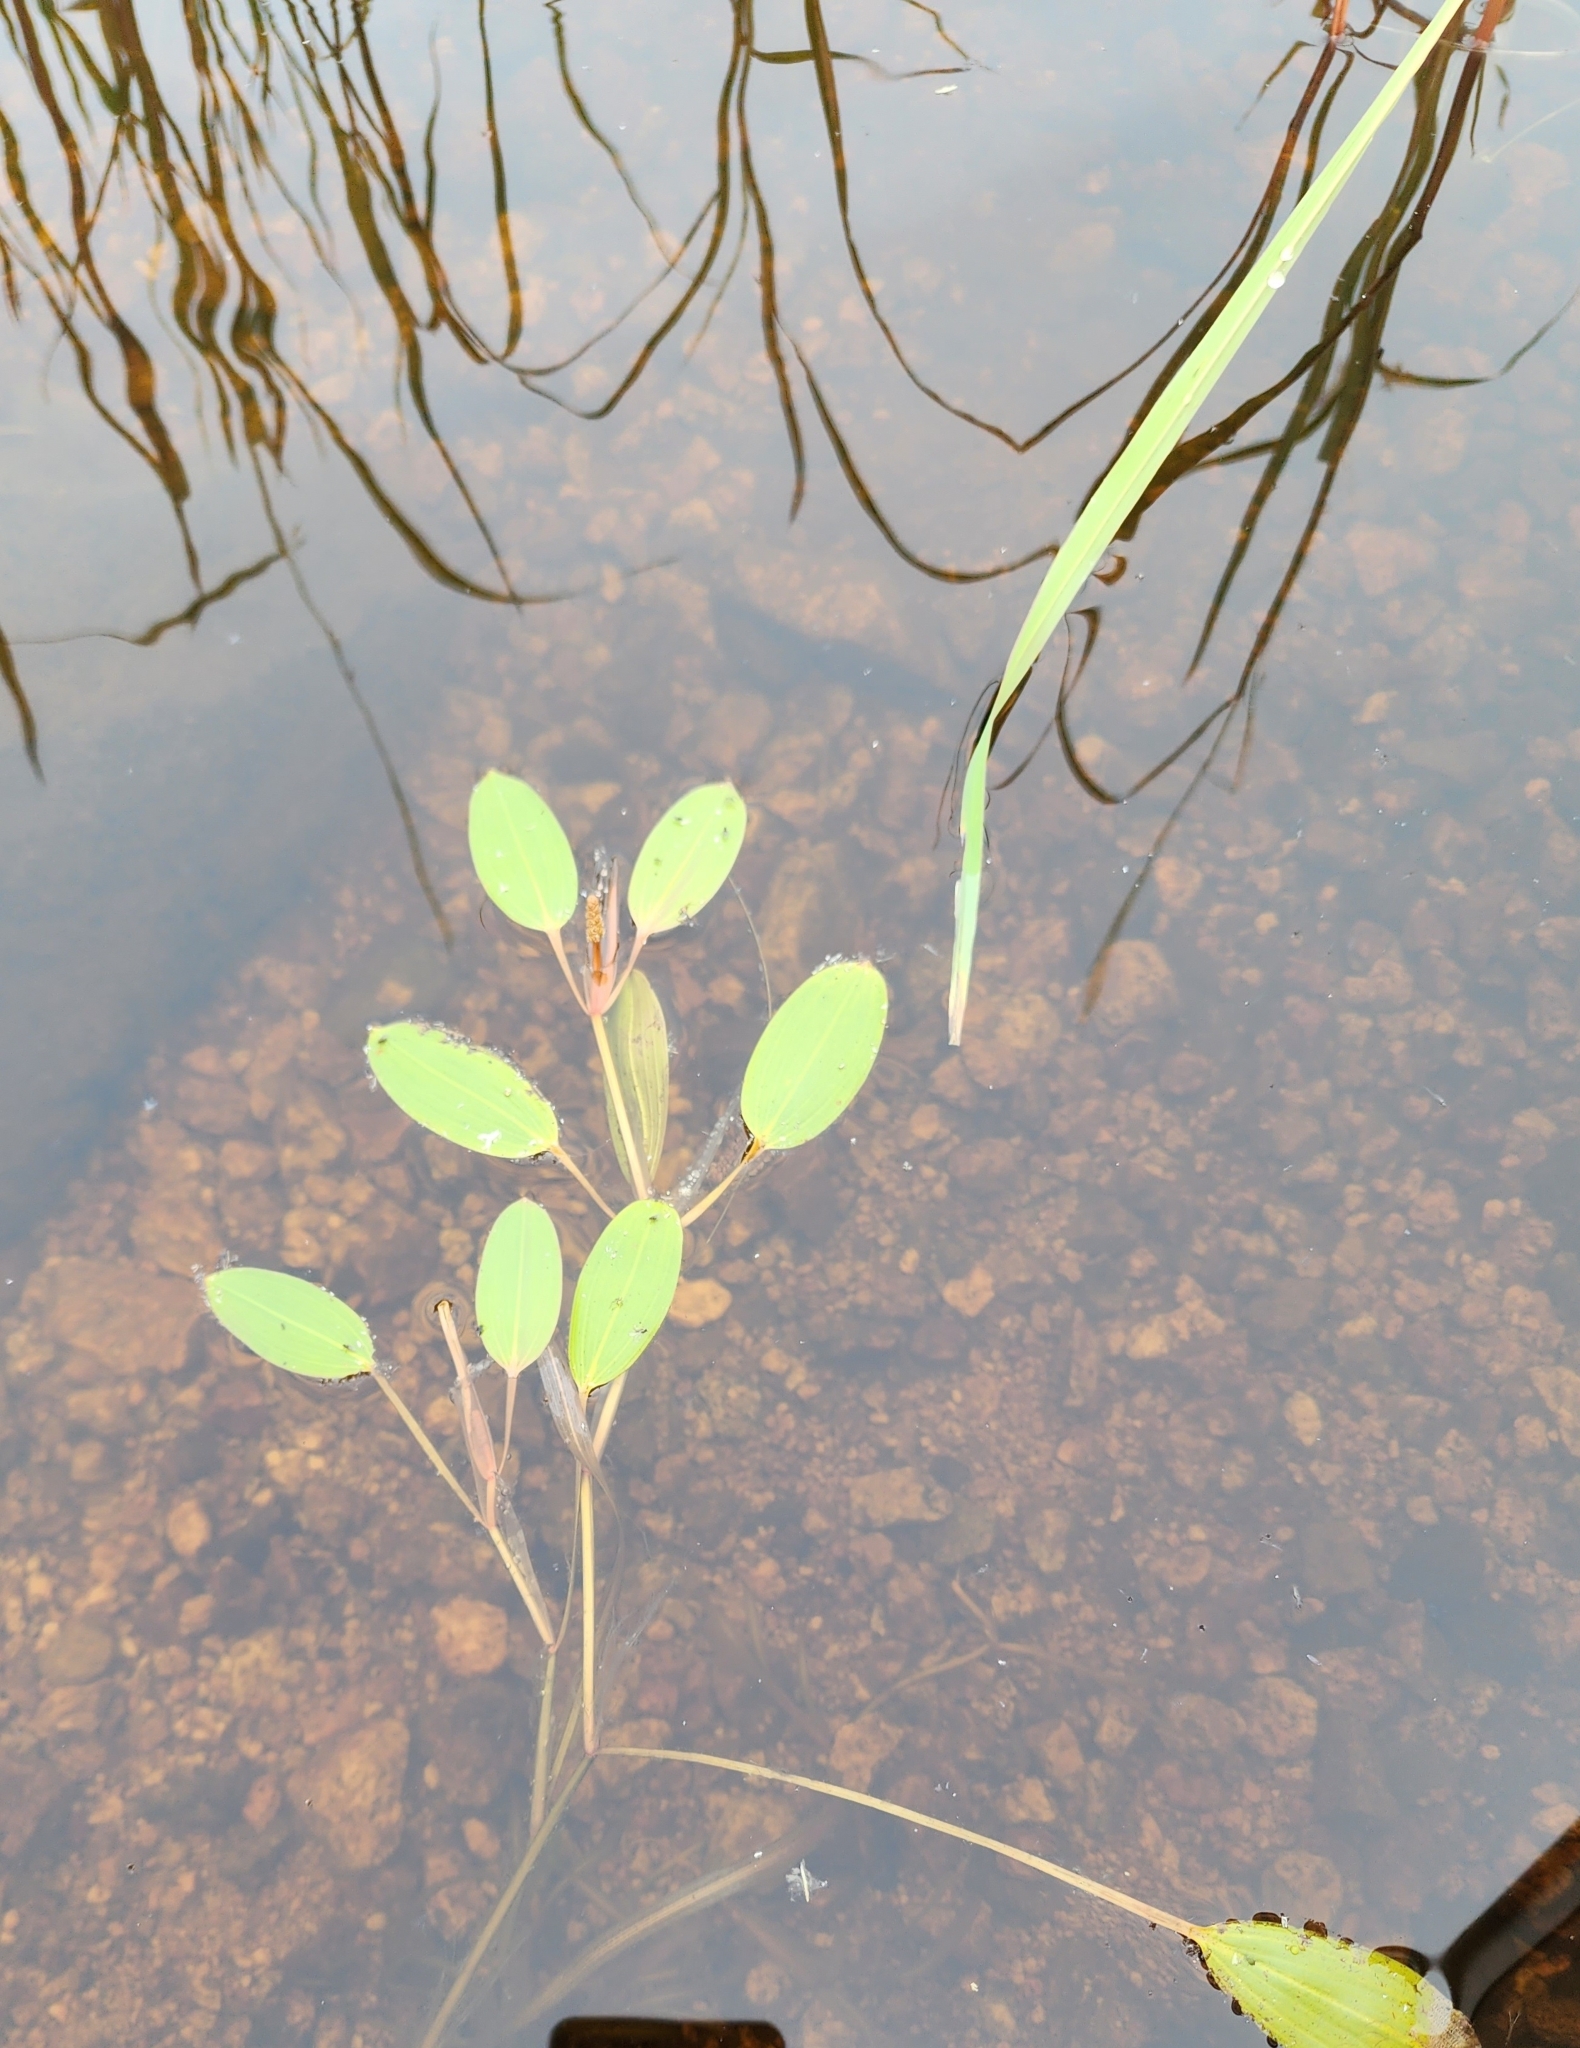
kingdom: Plantae
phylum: Tracheophyta
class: Liliopsida
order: Alismatales
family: Potamogetonaceae
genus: Potamogeton
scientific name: Potamogeton epihydrus
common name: American pondweed
